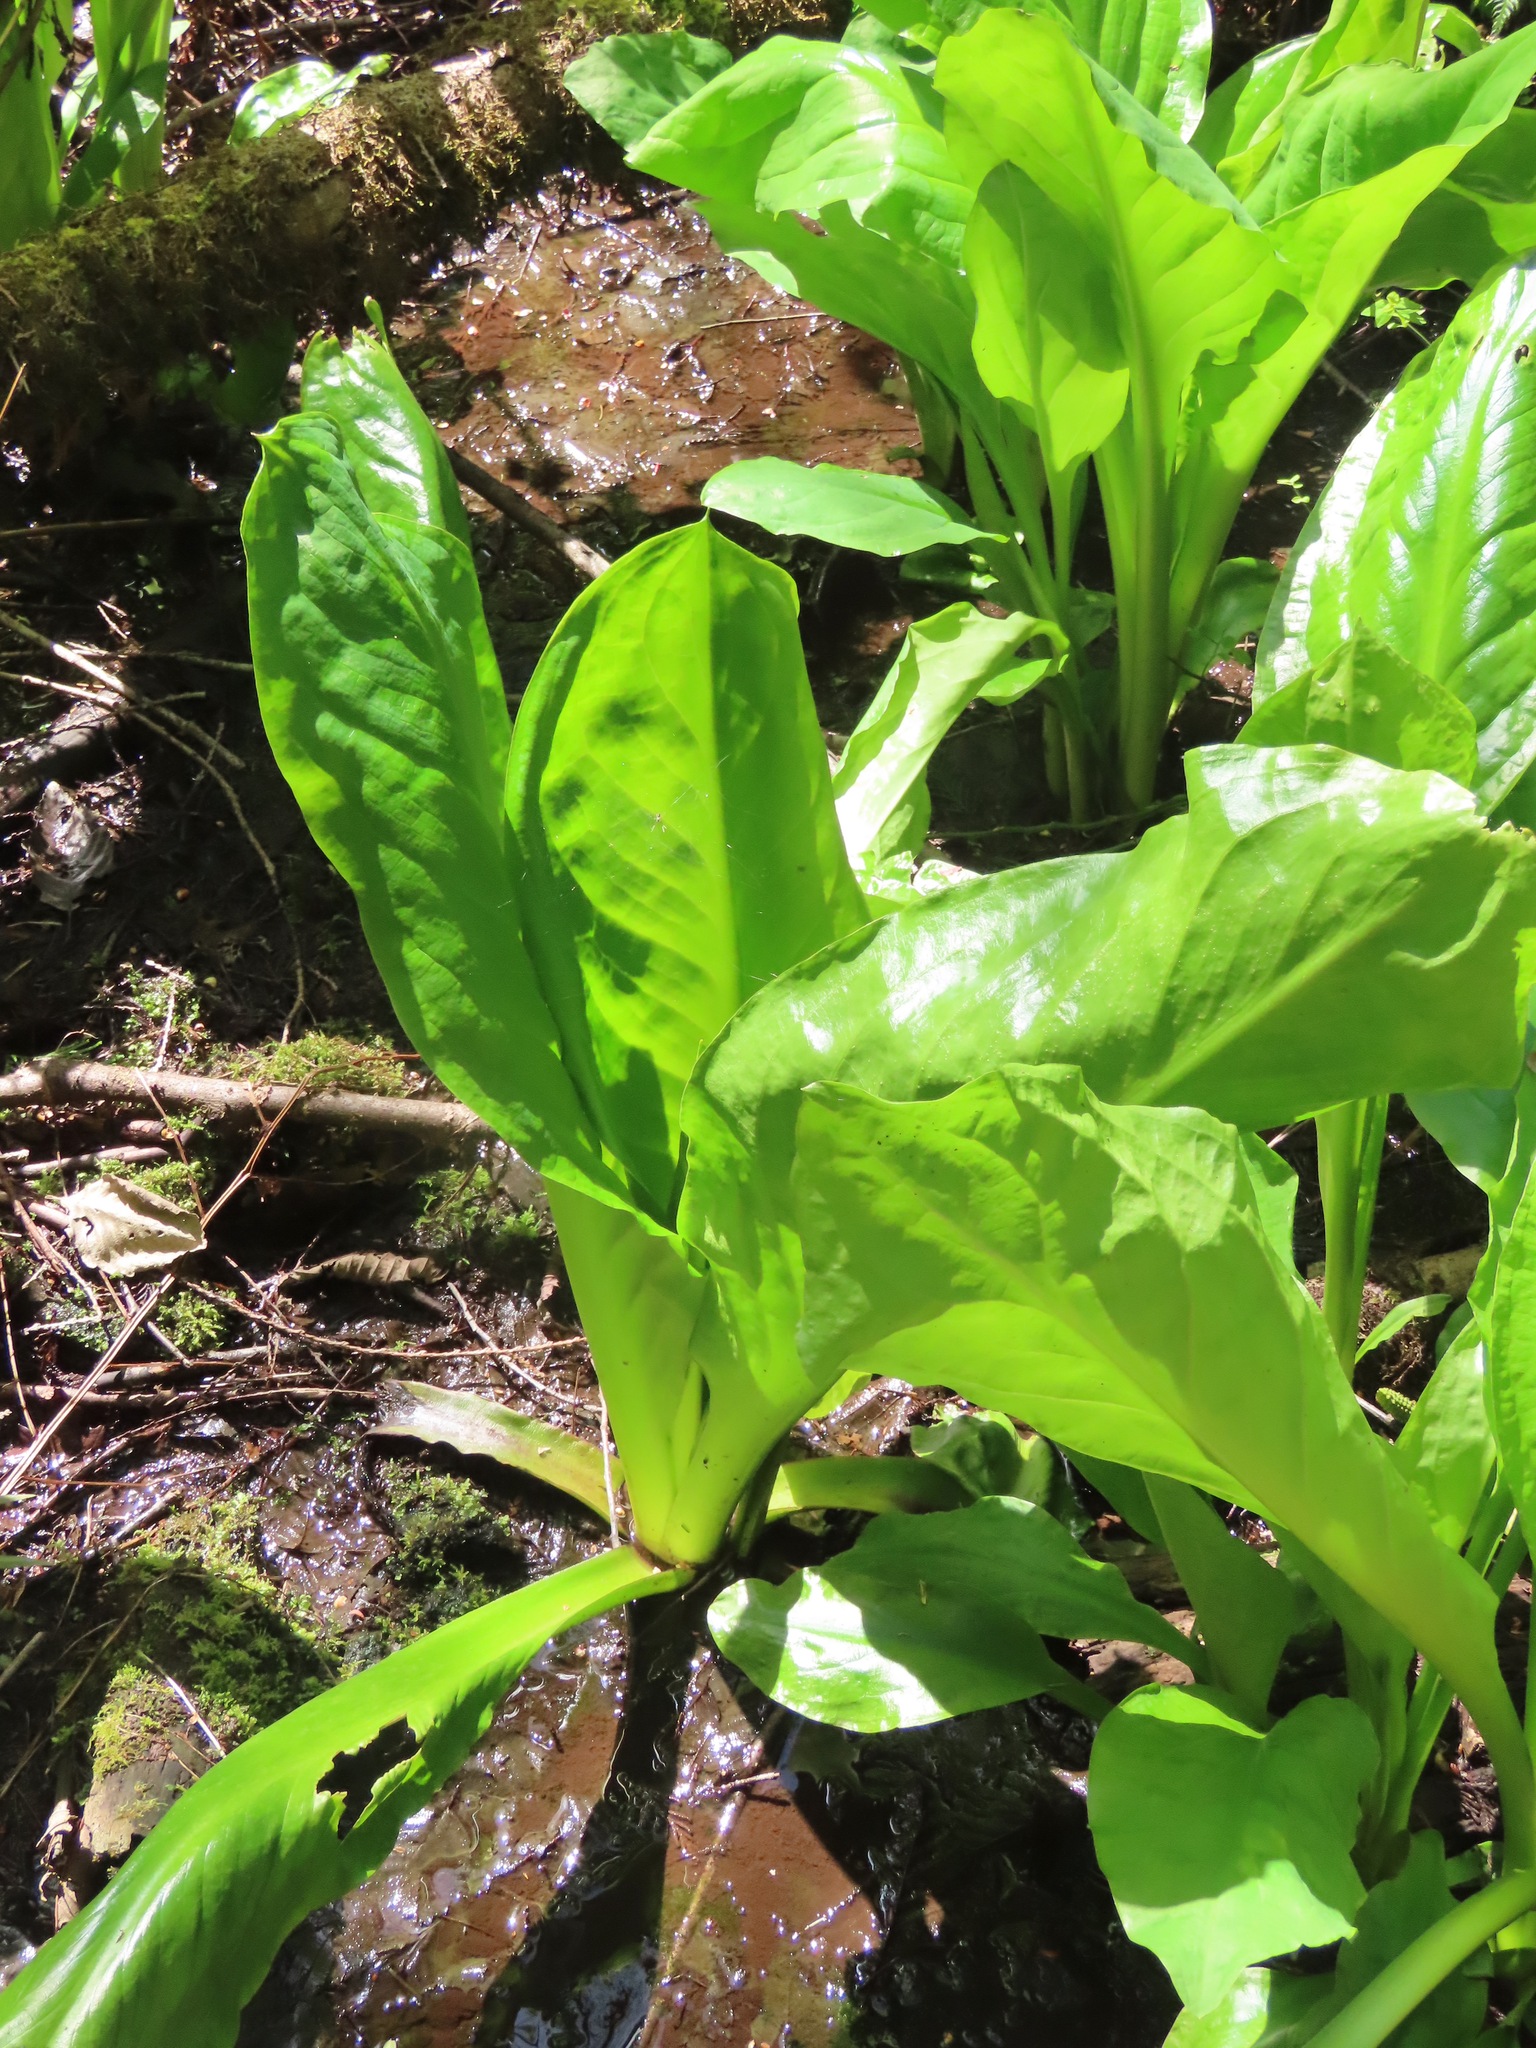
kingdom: Plantae
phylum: Tracheophyta
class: Liliopsida
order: Alismatales
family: Araceae
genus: Lysichiton
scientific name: Lysichiton americanus
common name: American skunk cabbage
